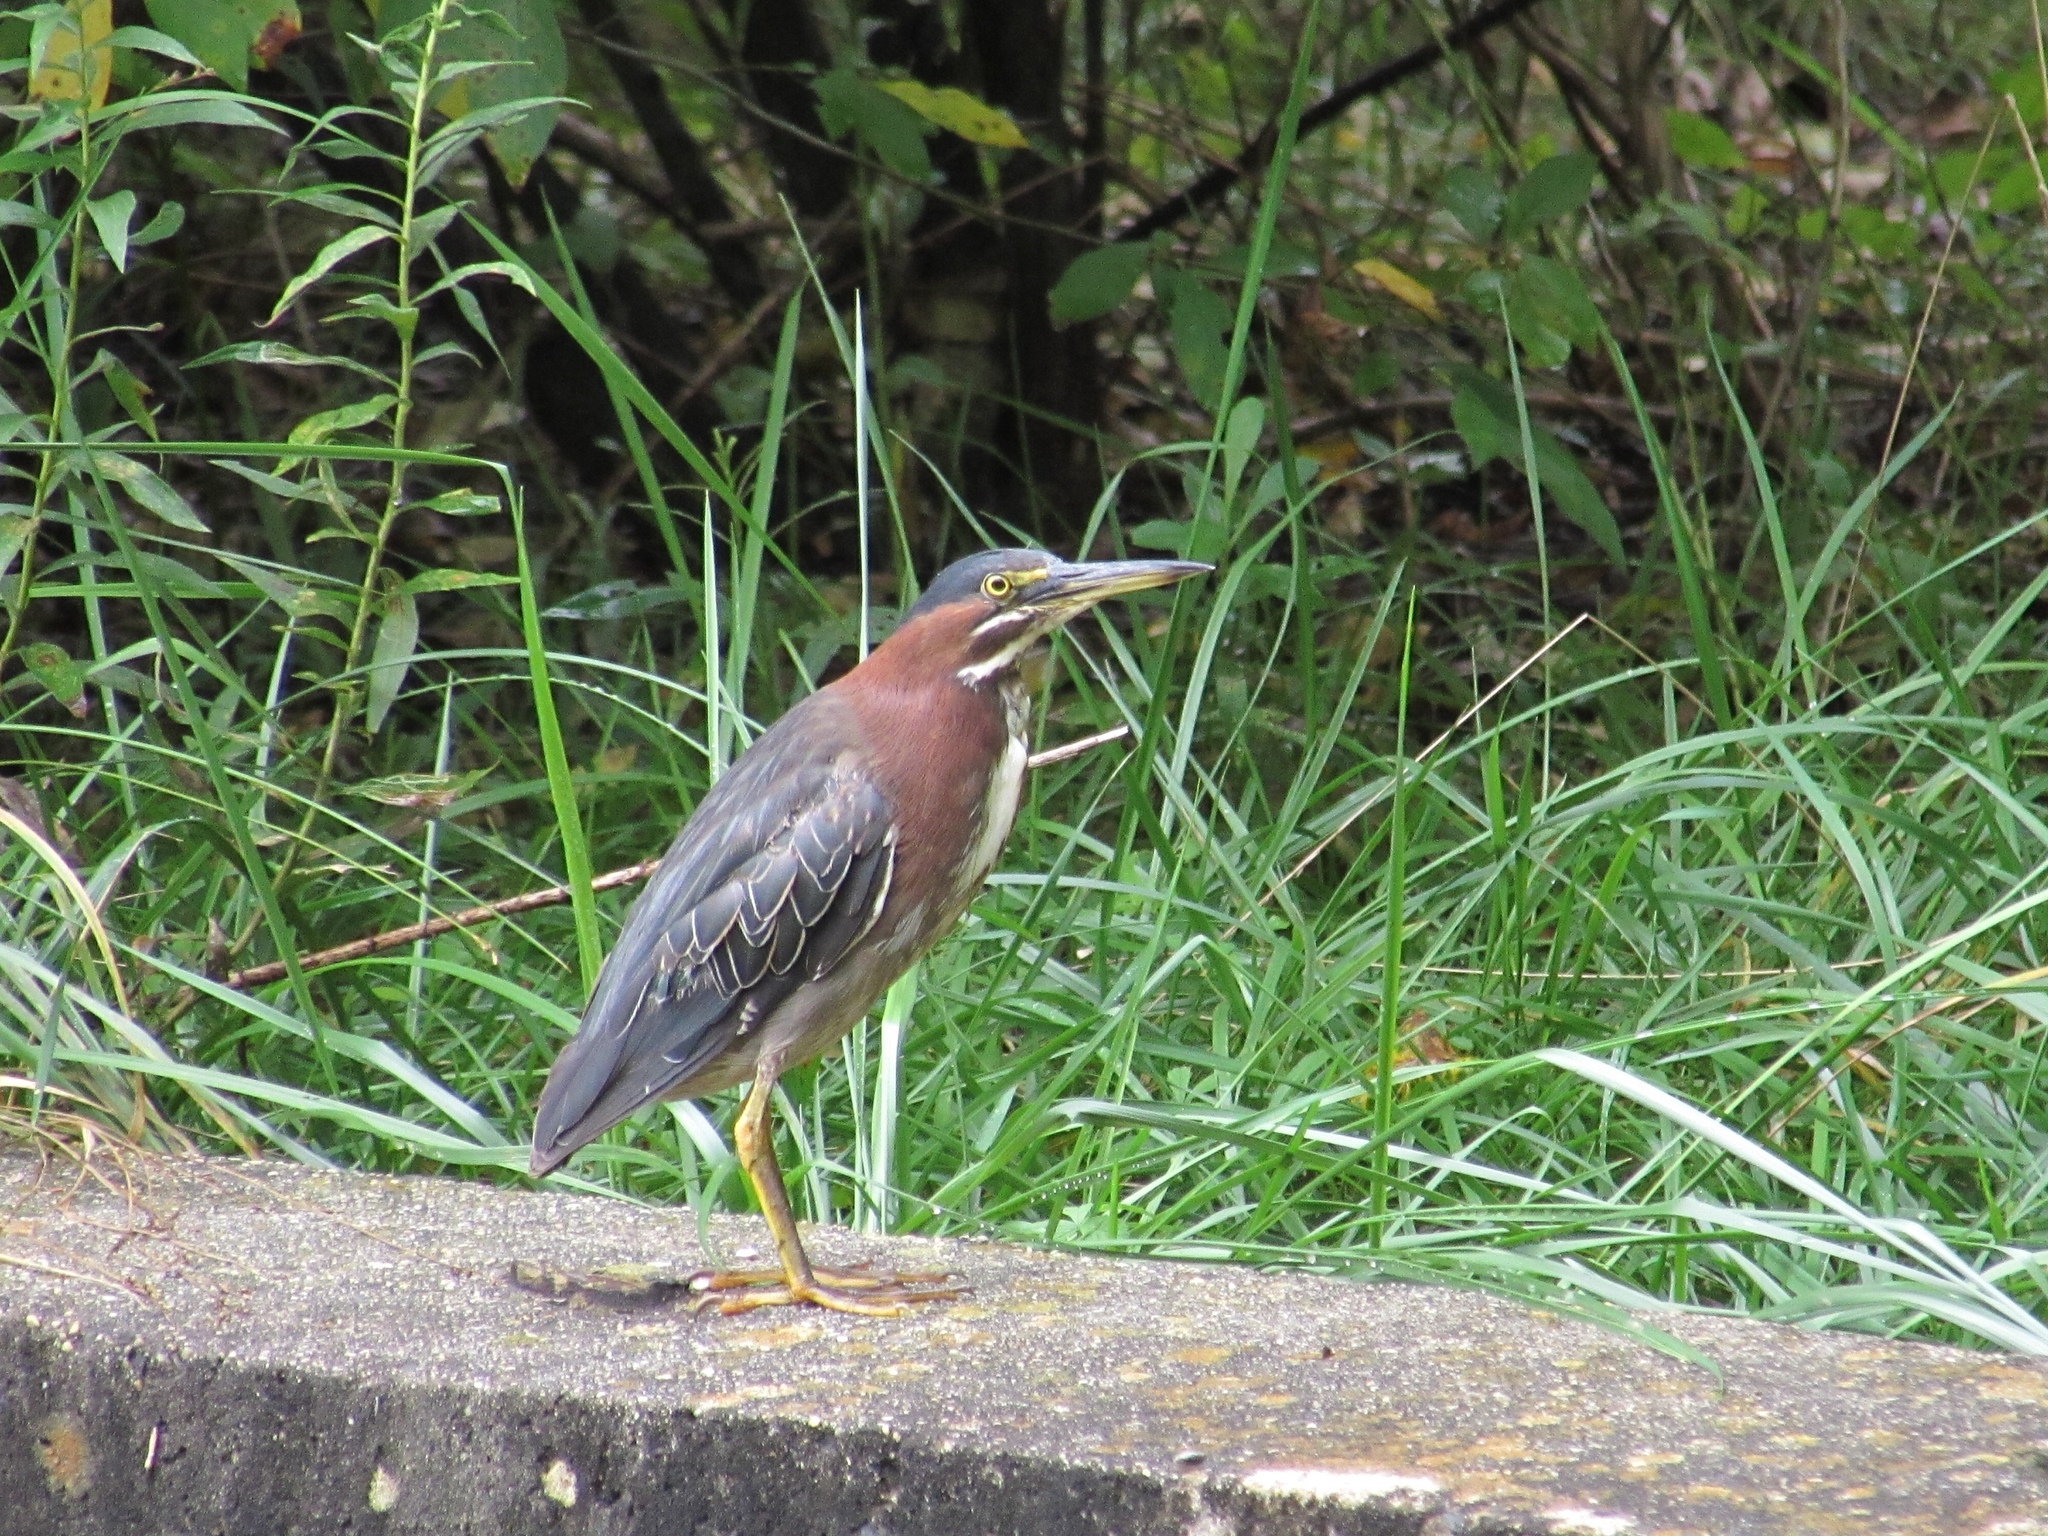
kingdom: Animalia
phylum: Chordata
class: Aves
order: Pelecaniformes
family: Ardeidae
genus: Butorides
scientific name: Butorides virescens
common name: Green heron
